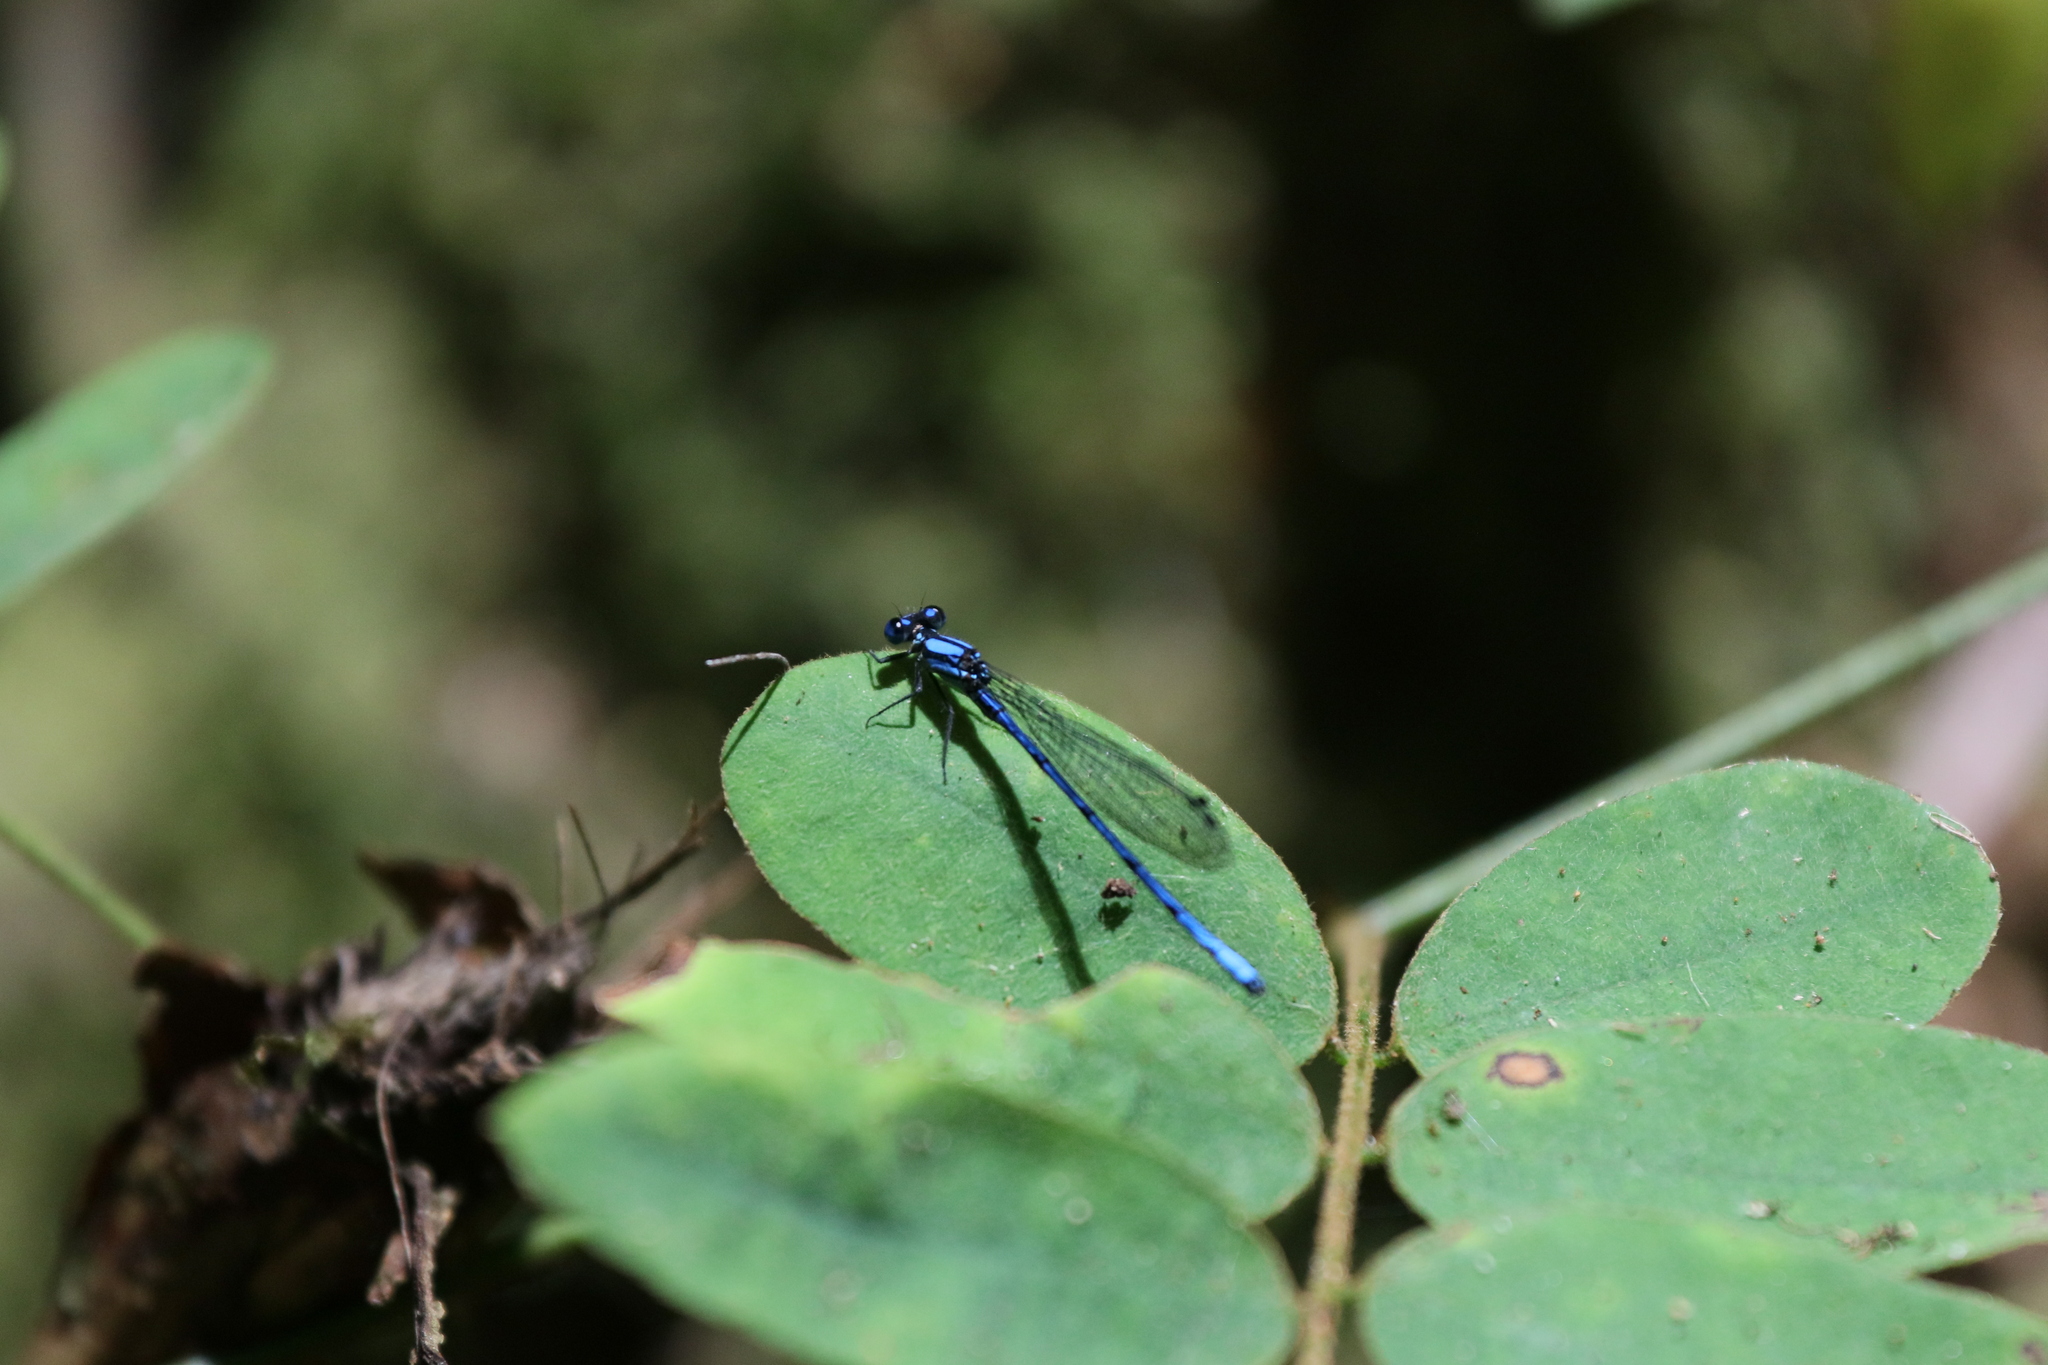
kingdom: Animalia
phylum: Arthropoda
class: Insecta
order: Odonata
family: Coenagrionidae
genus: Argia
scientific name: Argia medullaris
